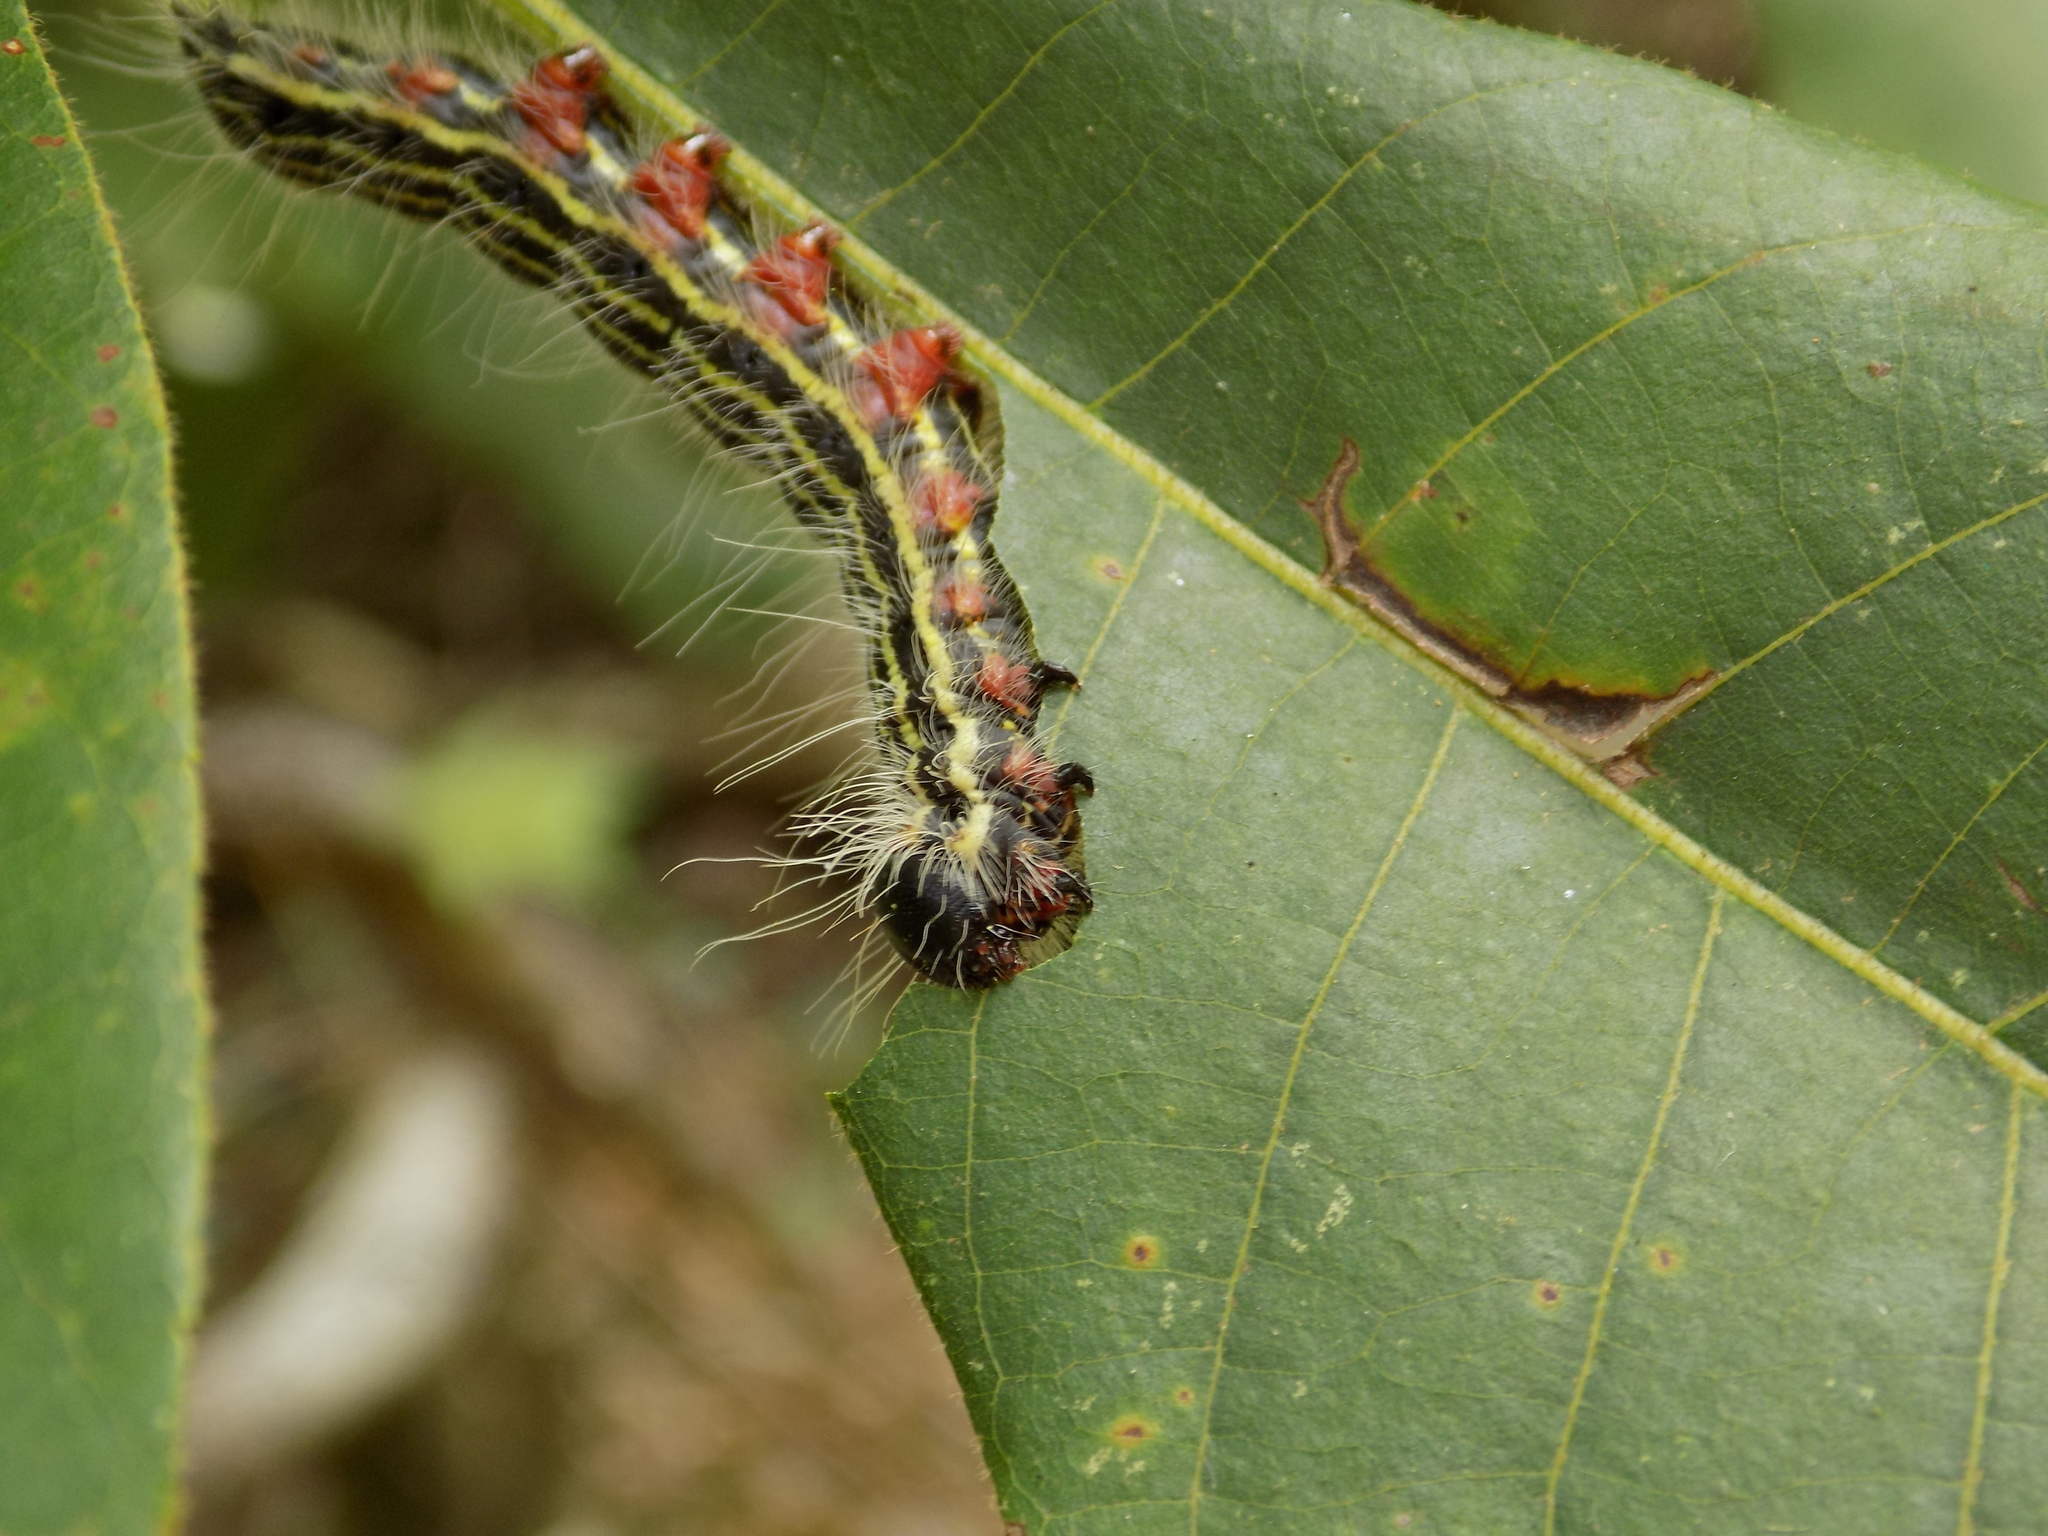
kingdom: Animalia
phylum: Arthropoda
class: Insecta
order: Lepidoptera
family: Notodontidae
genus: Datana
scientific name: Datana
